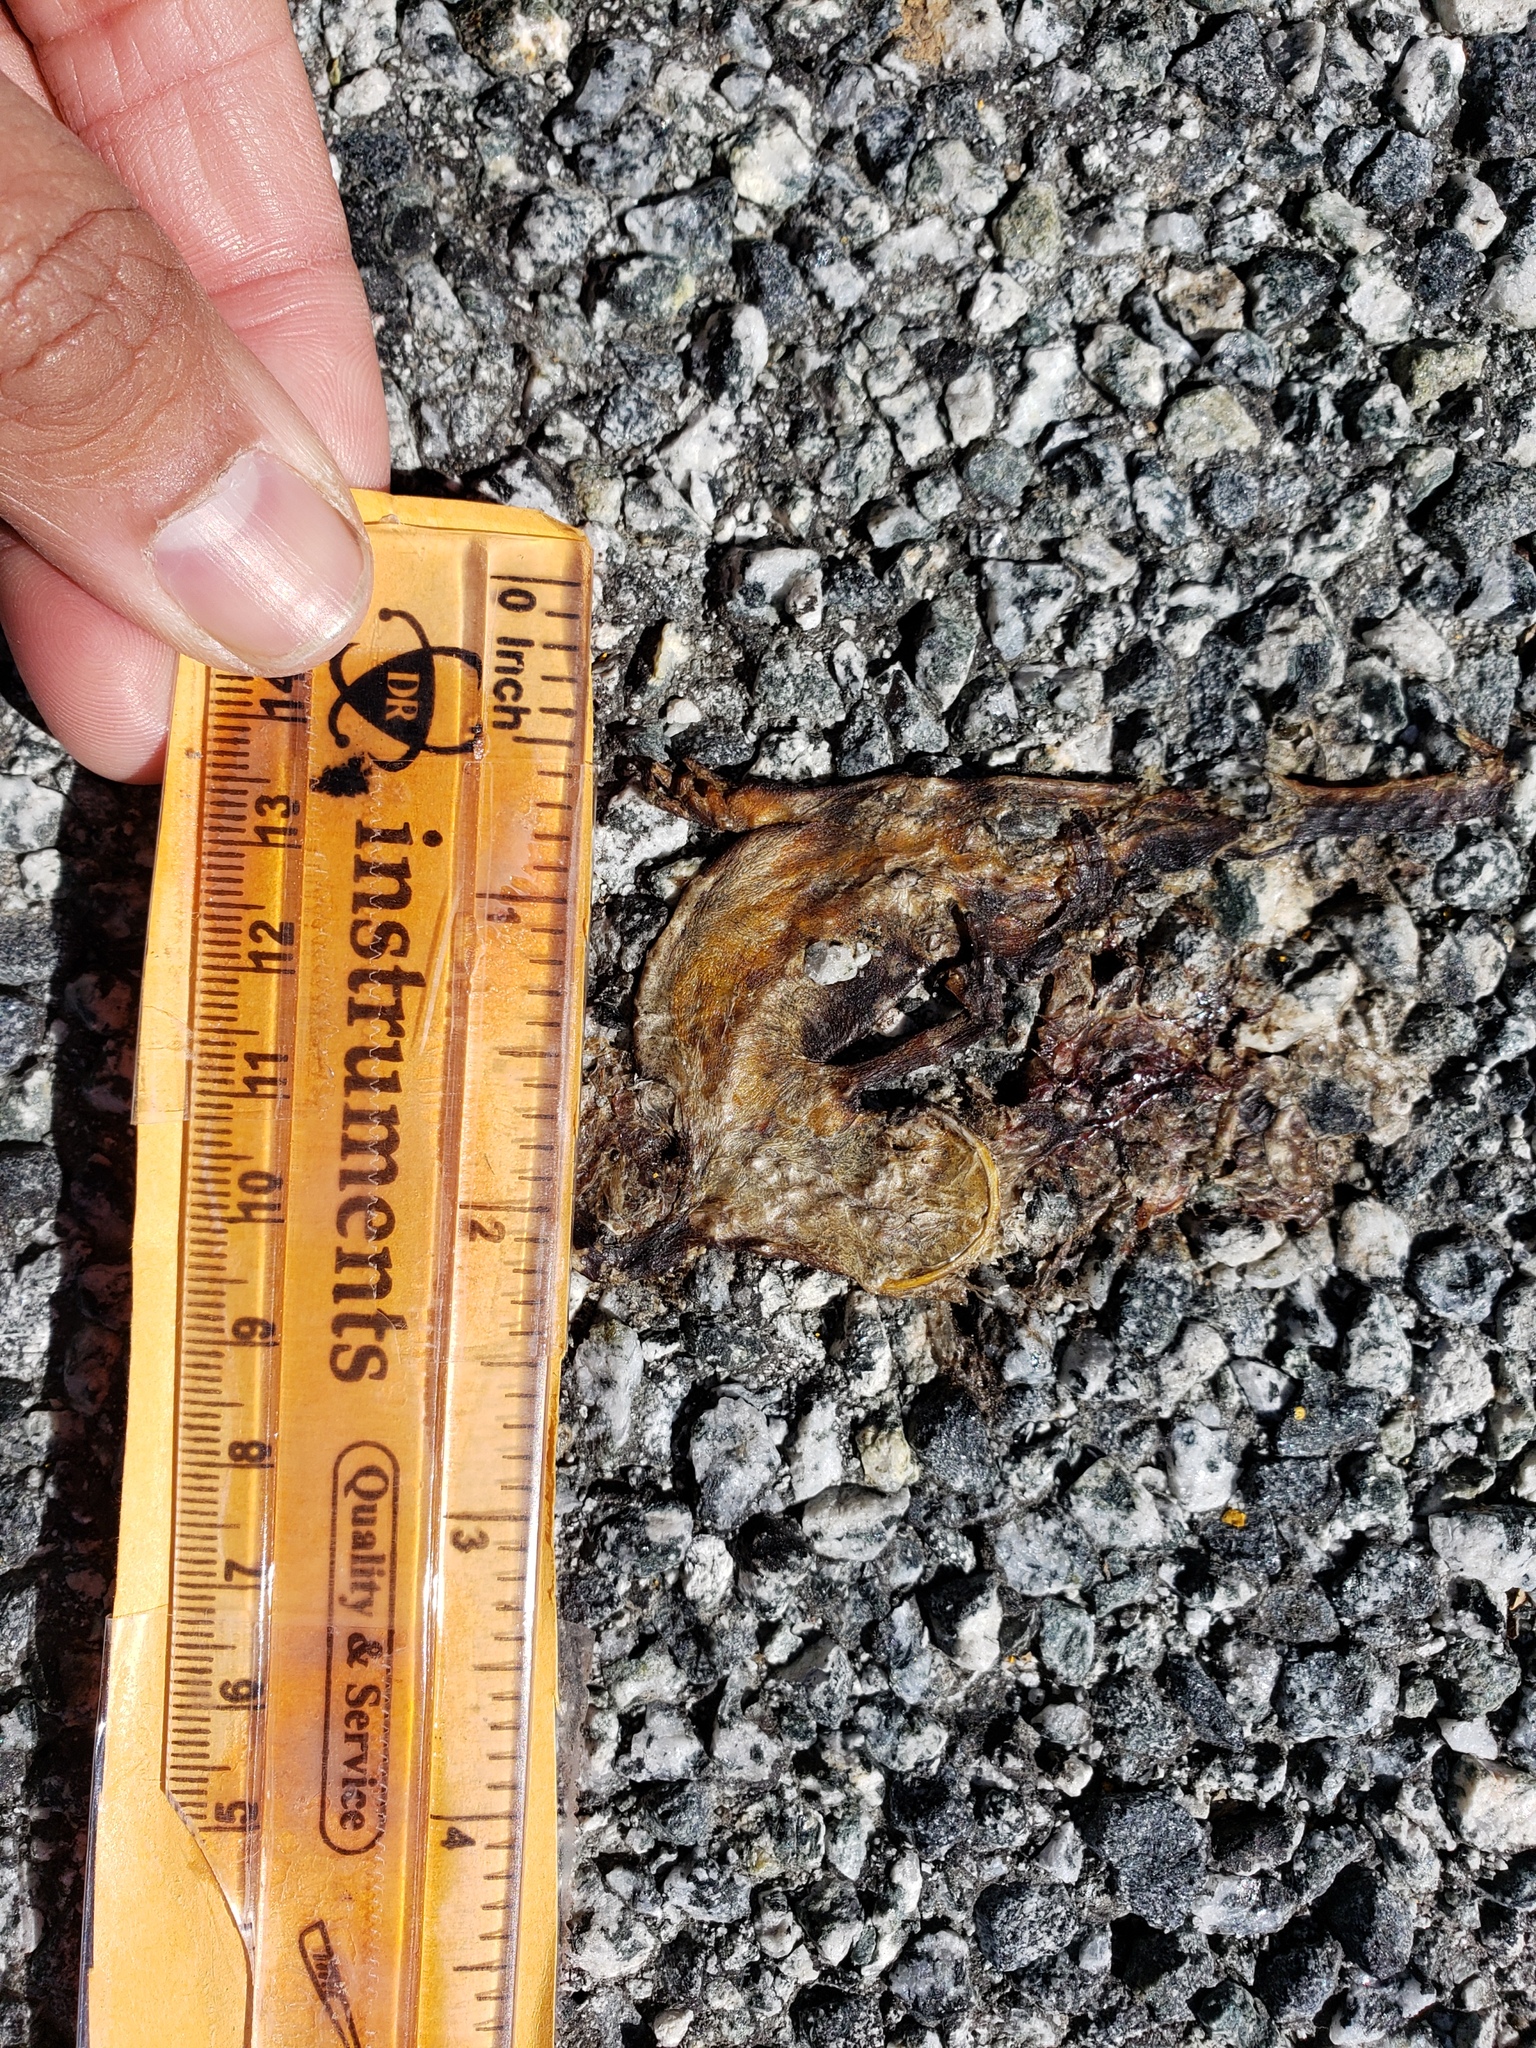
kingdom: Animalia
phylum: Chordata
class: Amphibia
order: Caudata
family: Salamandridae
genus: Taricha
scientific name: Taricha
